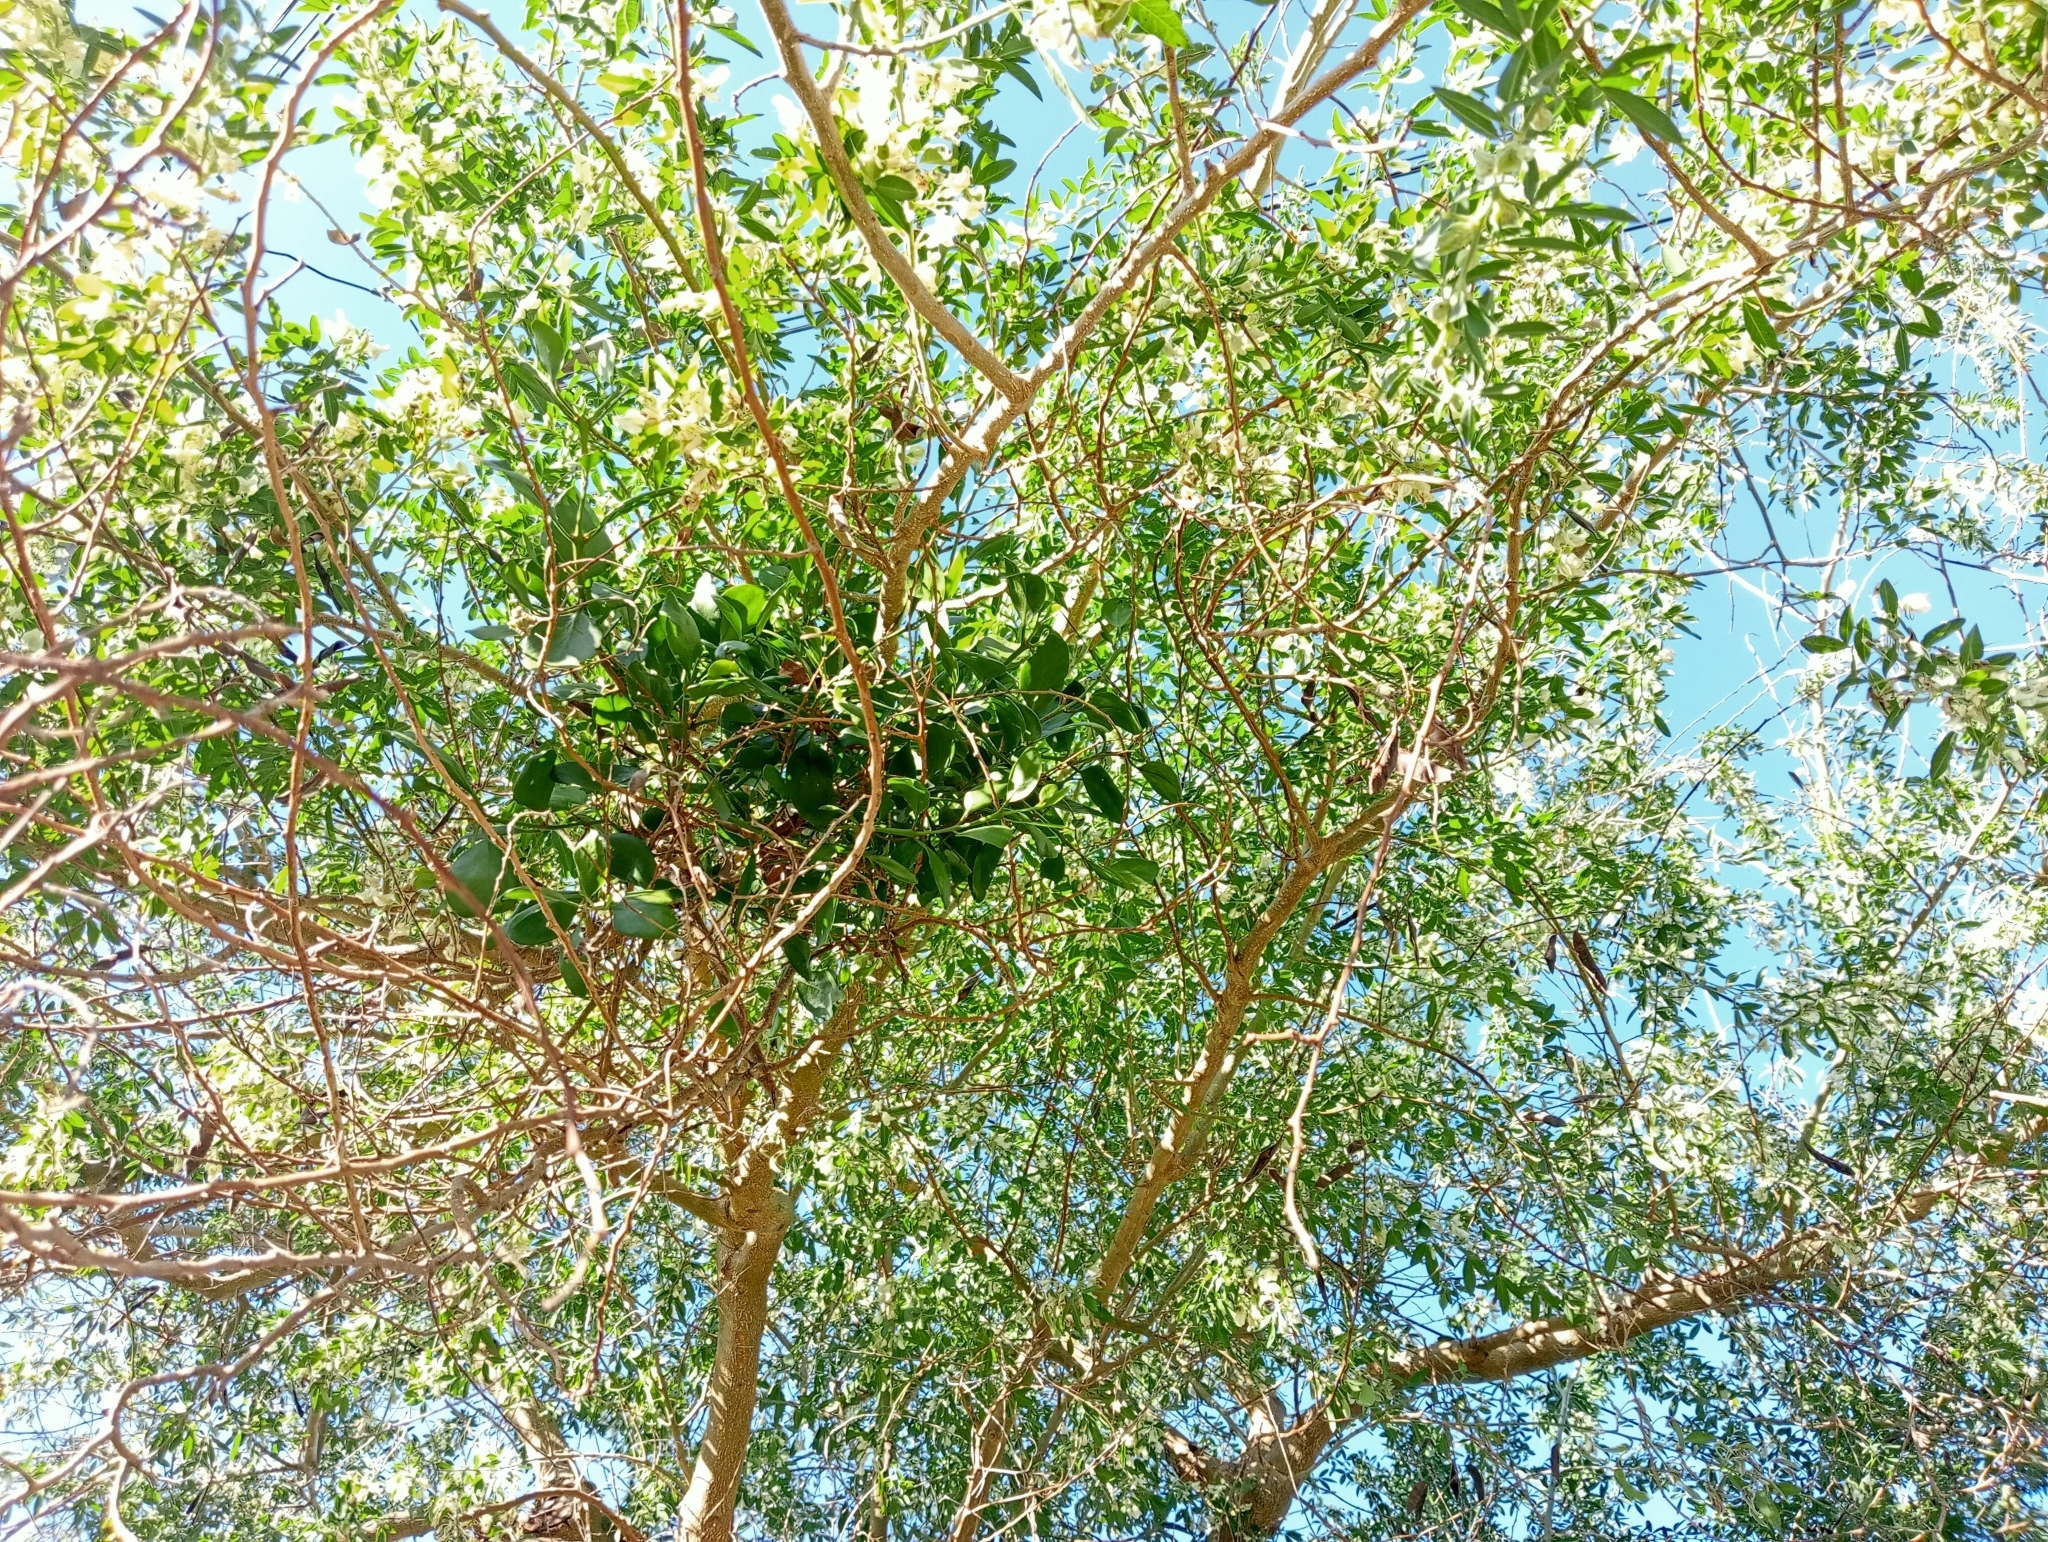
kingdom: Plantae
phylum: Tracheophyta
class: Magnoliopsida
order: Santalales
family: Loranthaceae
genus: Ileostylus
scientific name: Ileostylus micranthus
